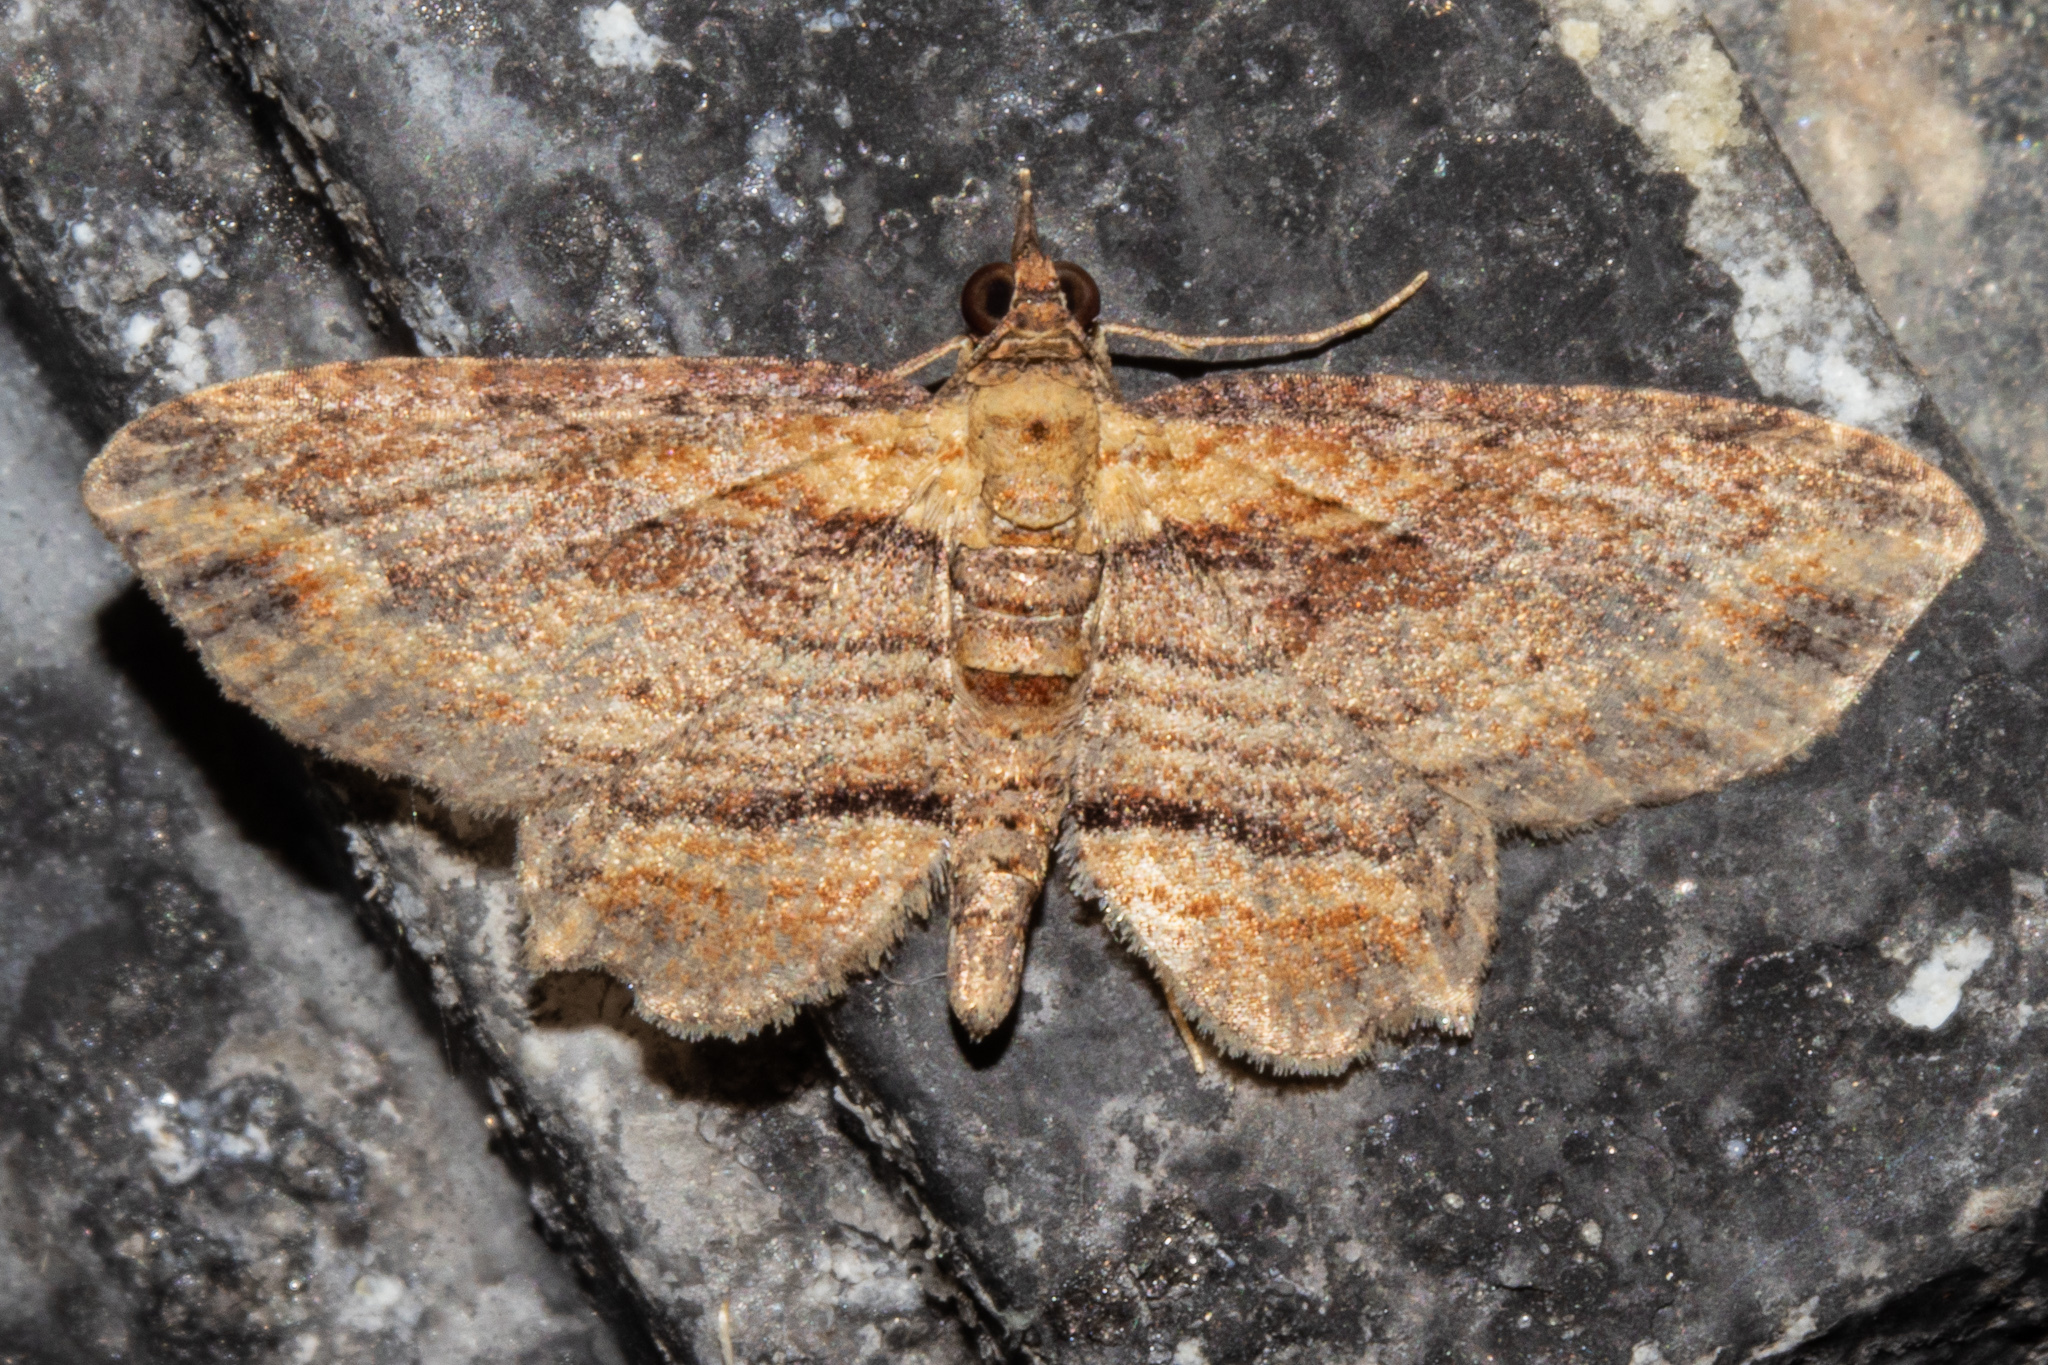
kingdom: Animalia
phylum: Arthropoda
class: Insecta
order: Lepidoptera
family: Geometridae
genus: Chloroclystis
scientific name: Chloroclystis filata
